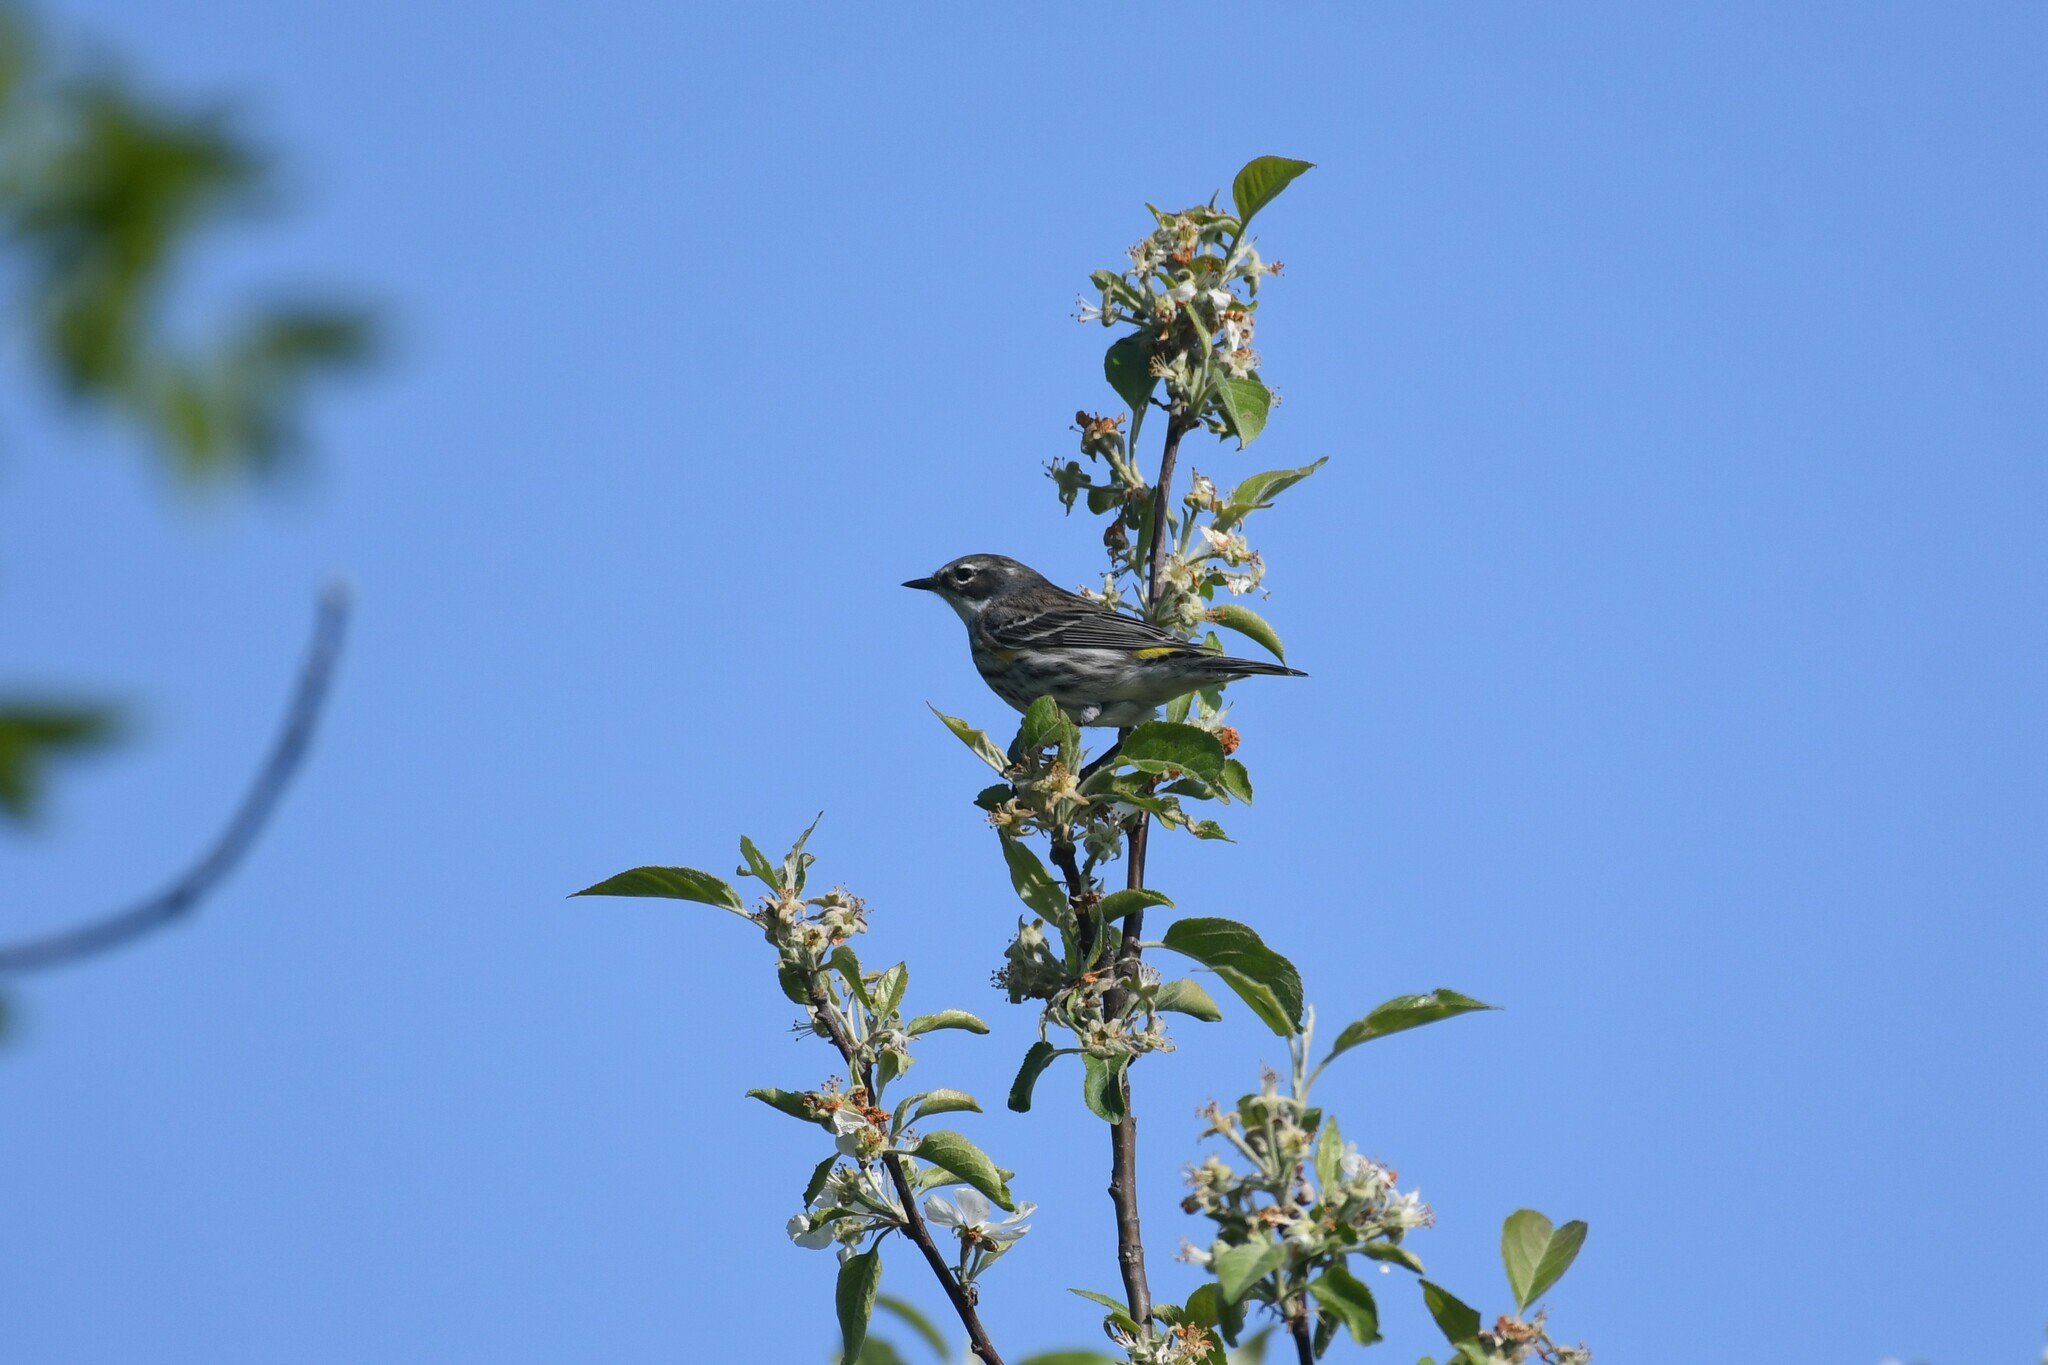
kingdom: Animalia
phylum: Chordata
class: Aves
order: Passeriformes
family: Parulidae
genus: Setophaga
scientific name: Setophaga coronata
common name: Myrtle warbler
